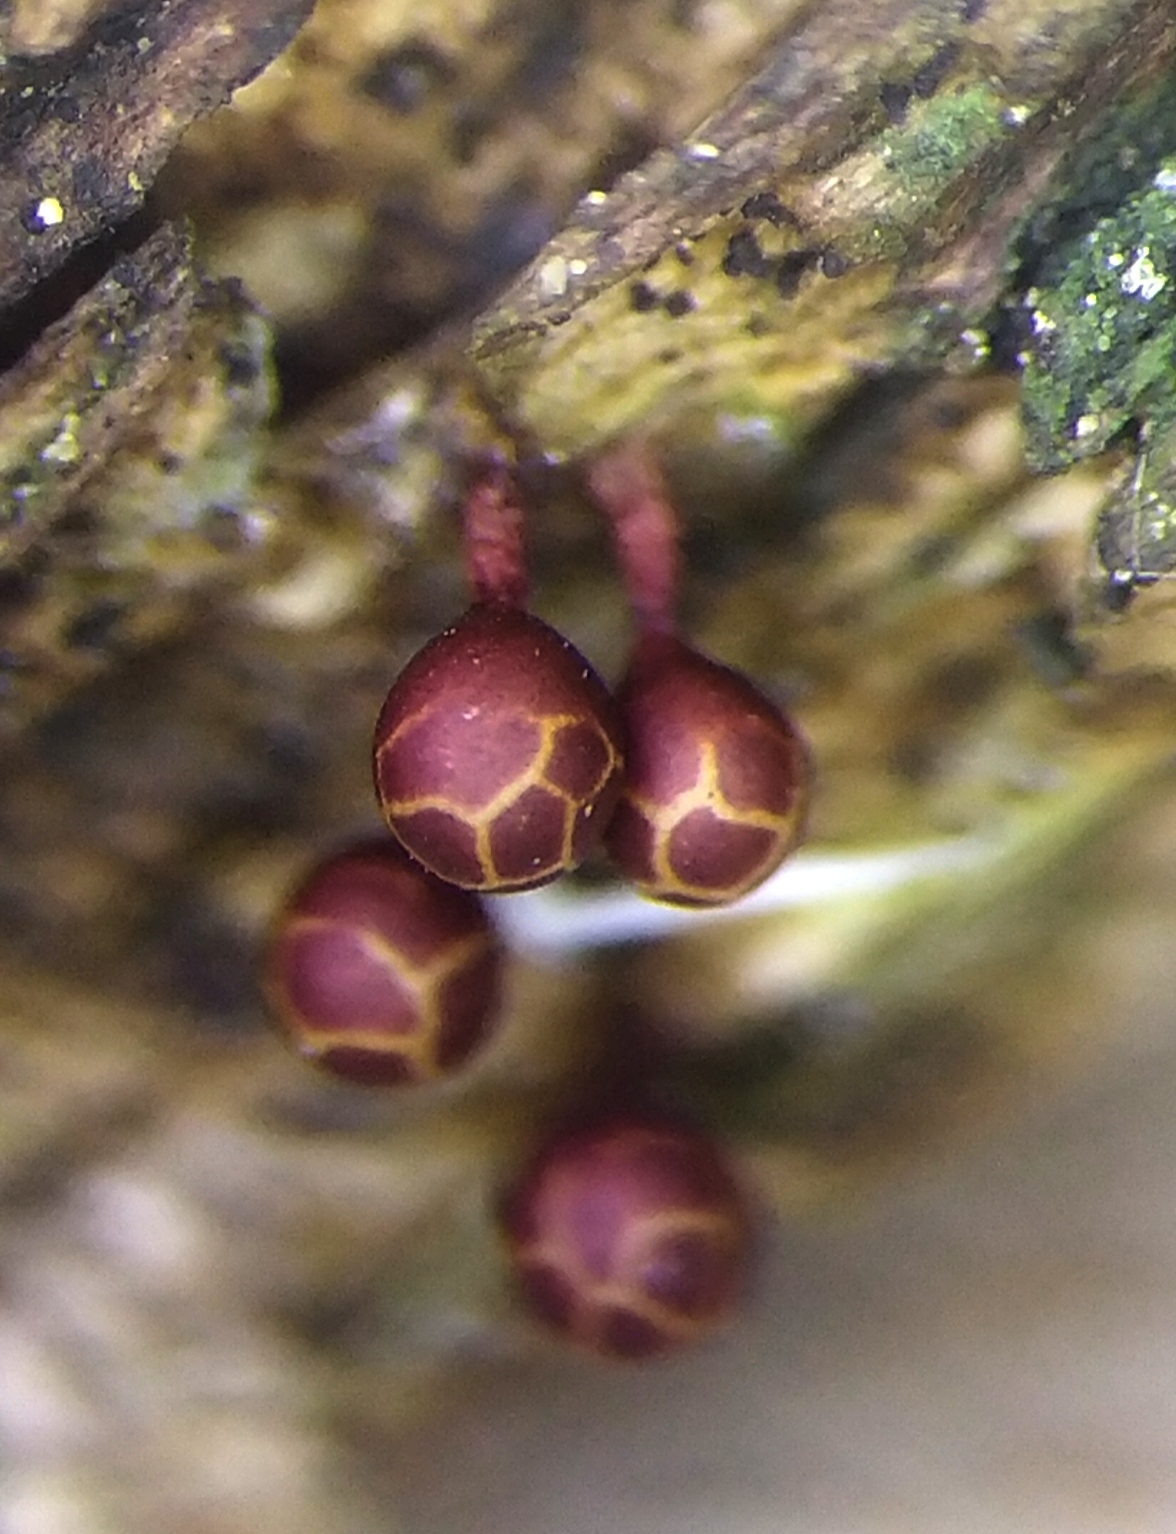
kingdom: Protozoa
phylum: Mycetozoa
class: Myxomycetes
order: Trichiales
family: Trichiaceae
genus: Trichia
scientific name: Trichia botrytis
